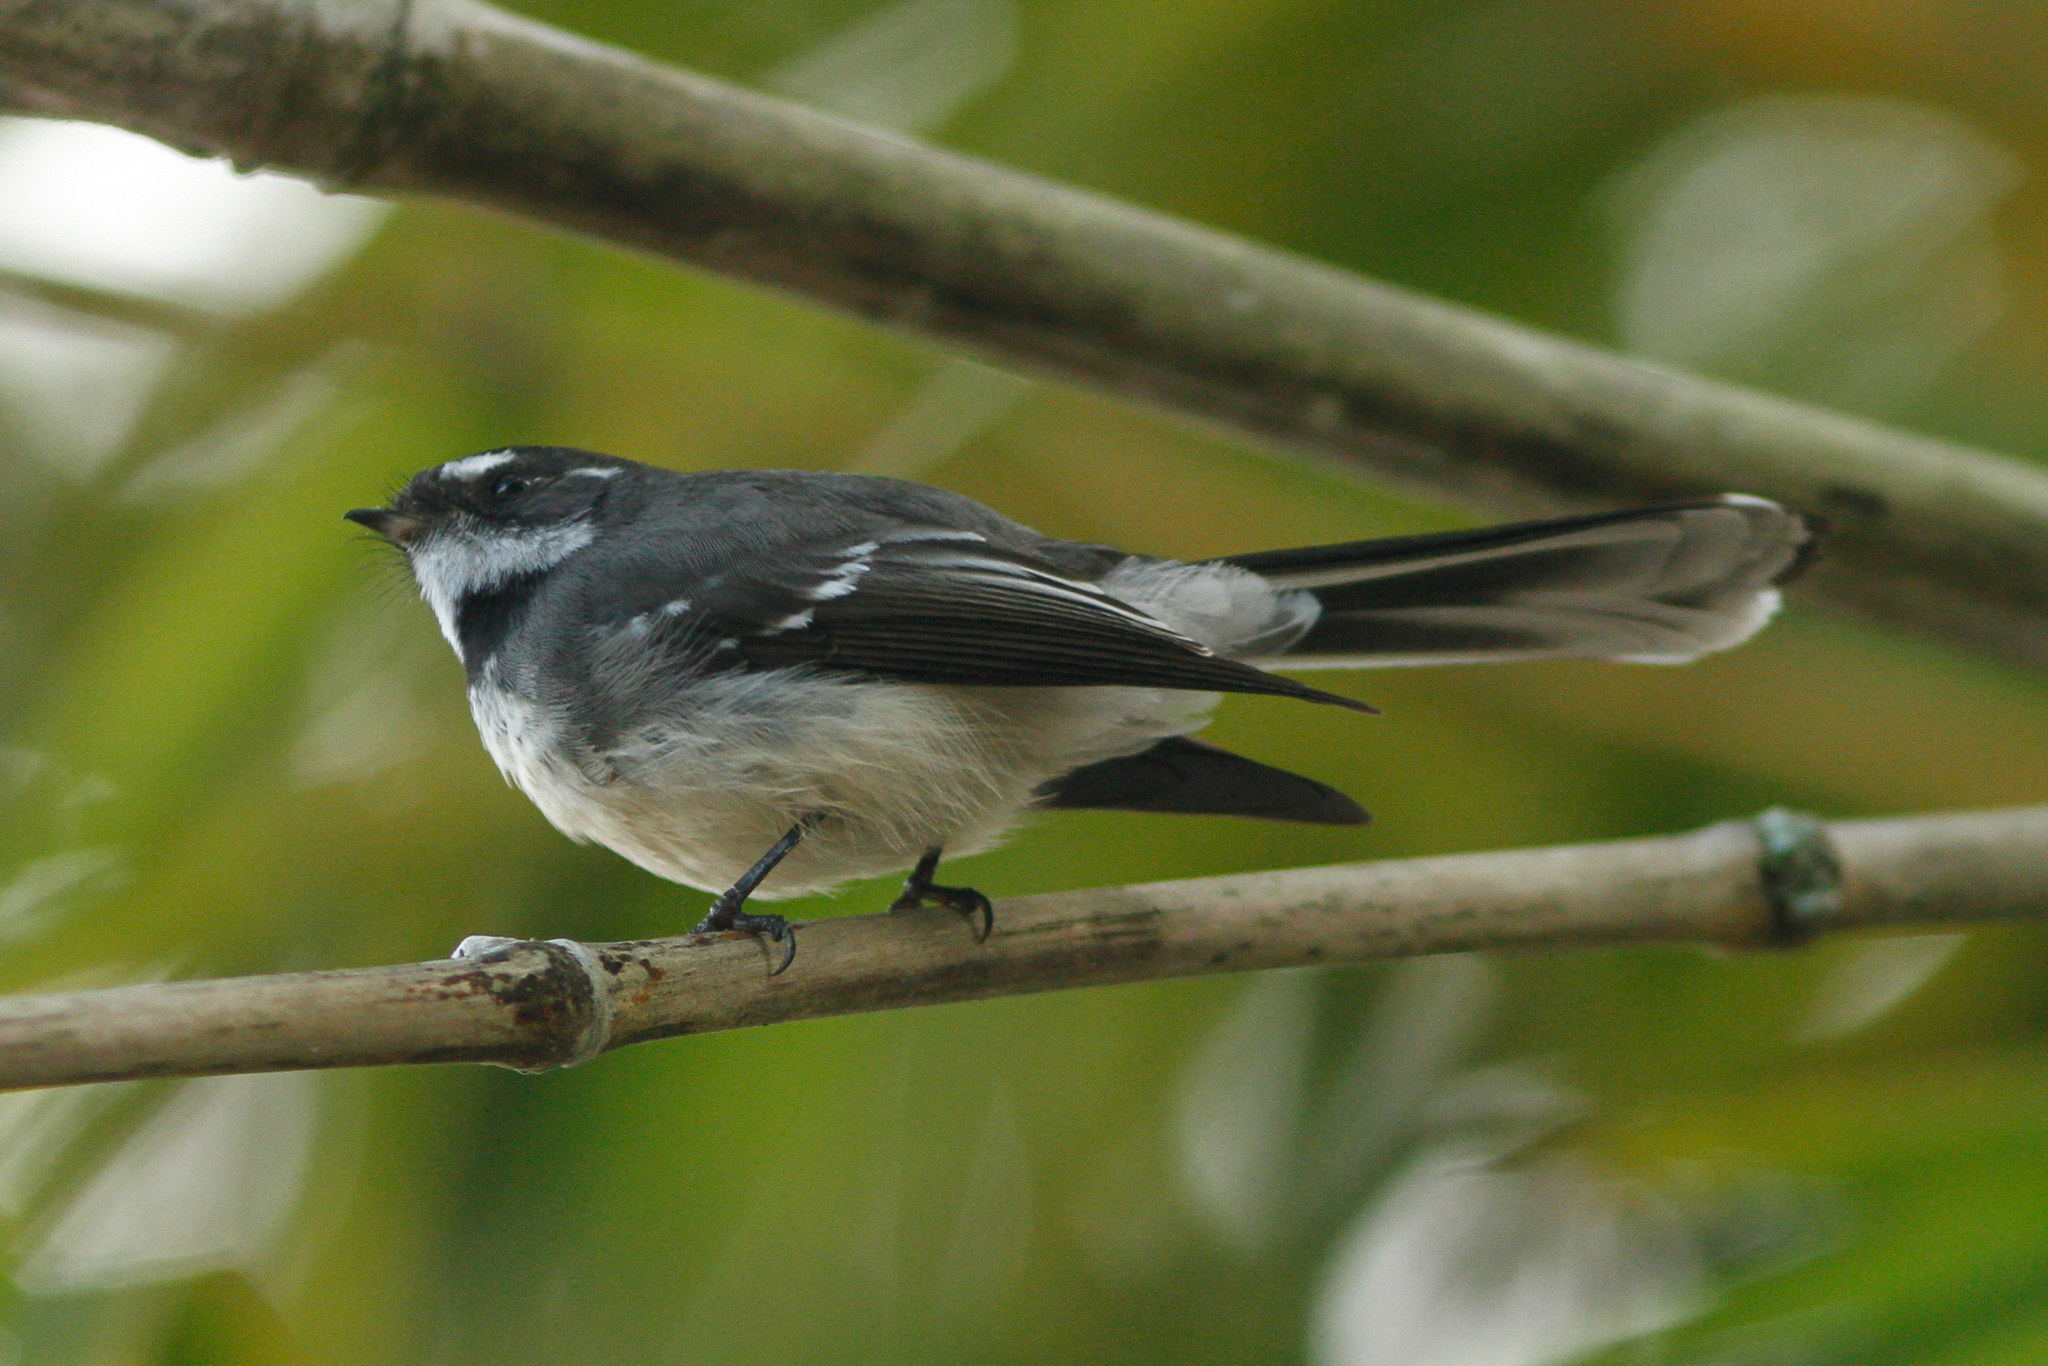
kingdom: Animalia
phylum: Chordata
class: Aves
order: Passeriformes
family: Rhipiduridae
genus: Rhipidura
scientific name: Rhipidura albiscapa
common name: Grey fantail
